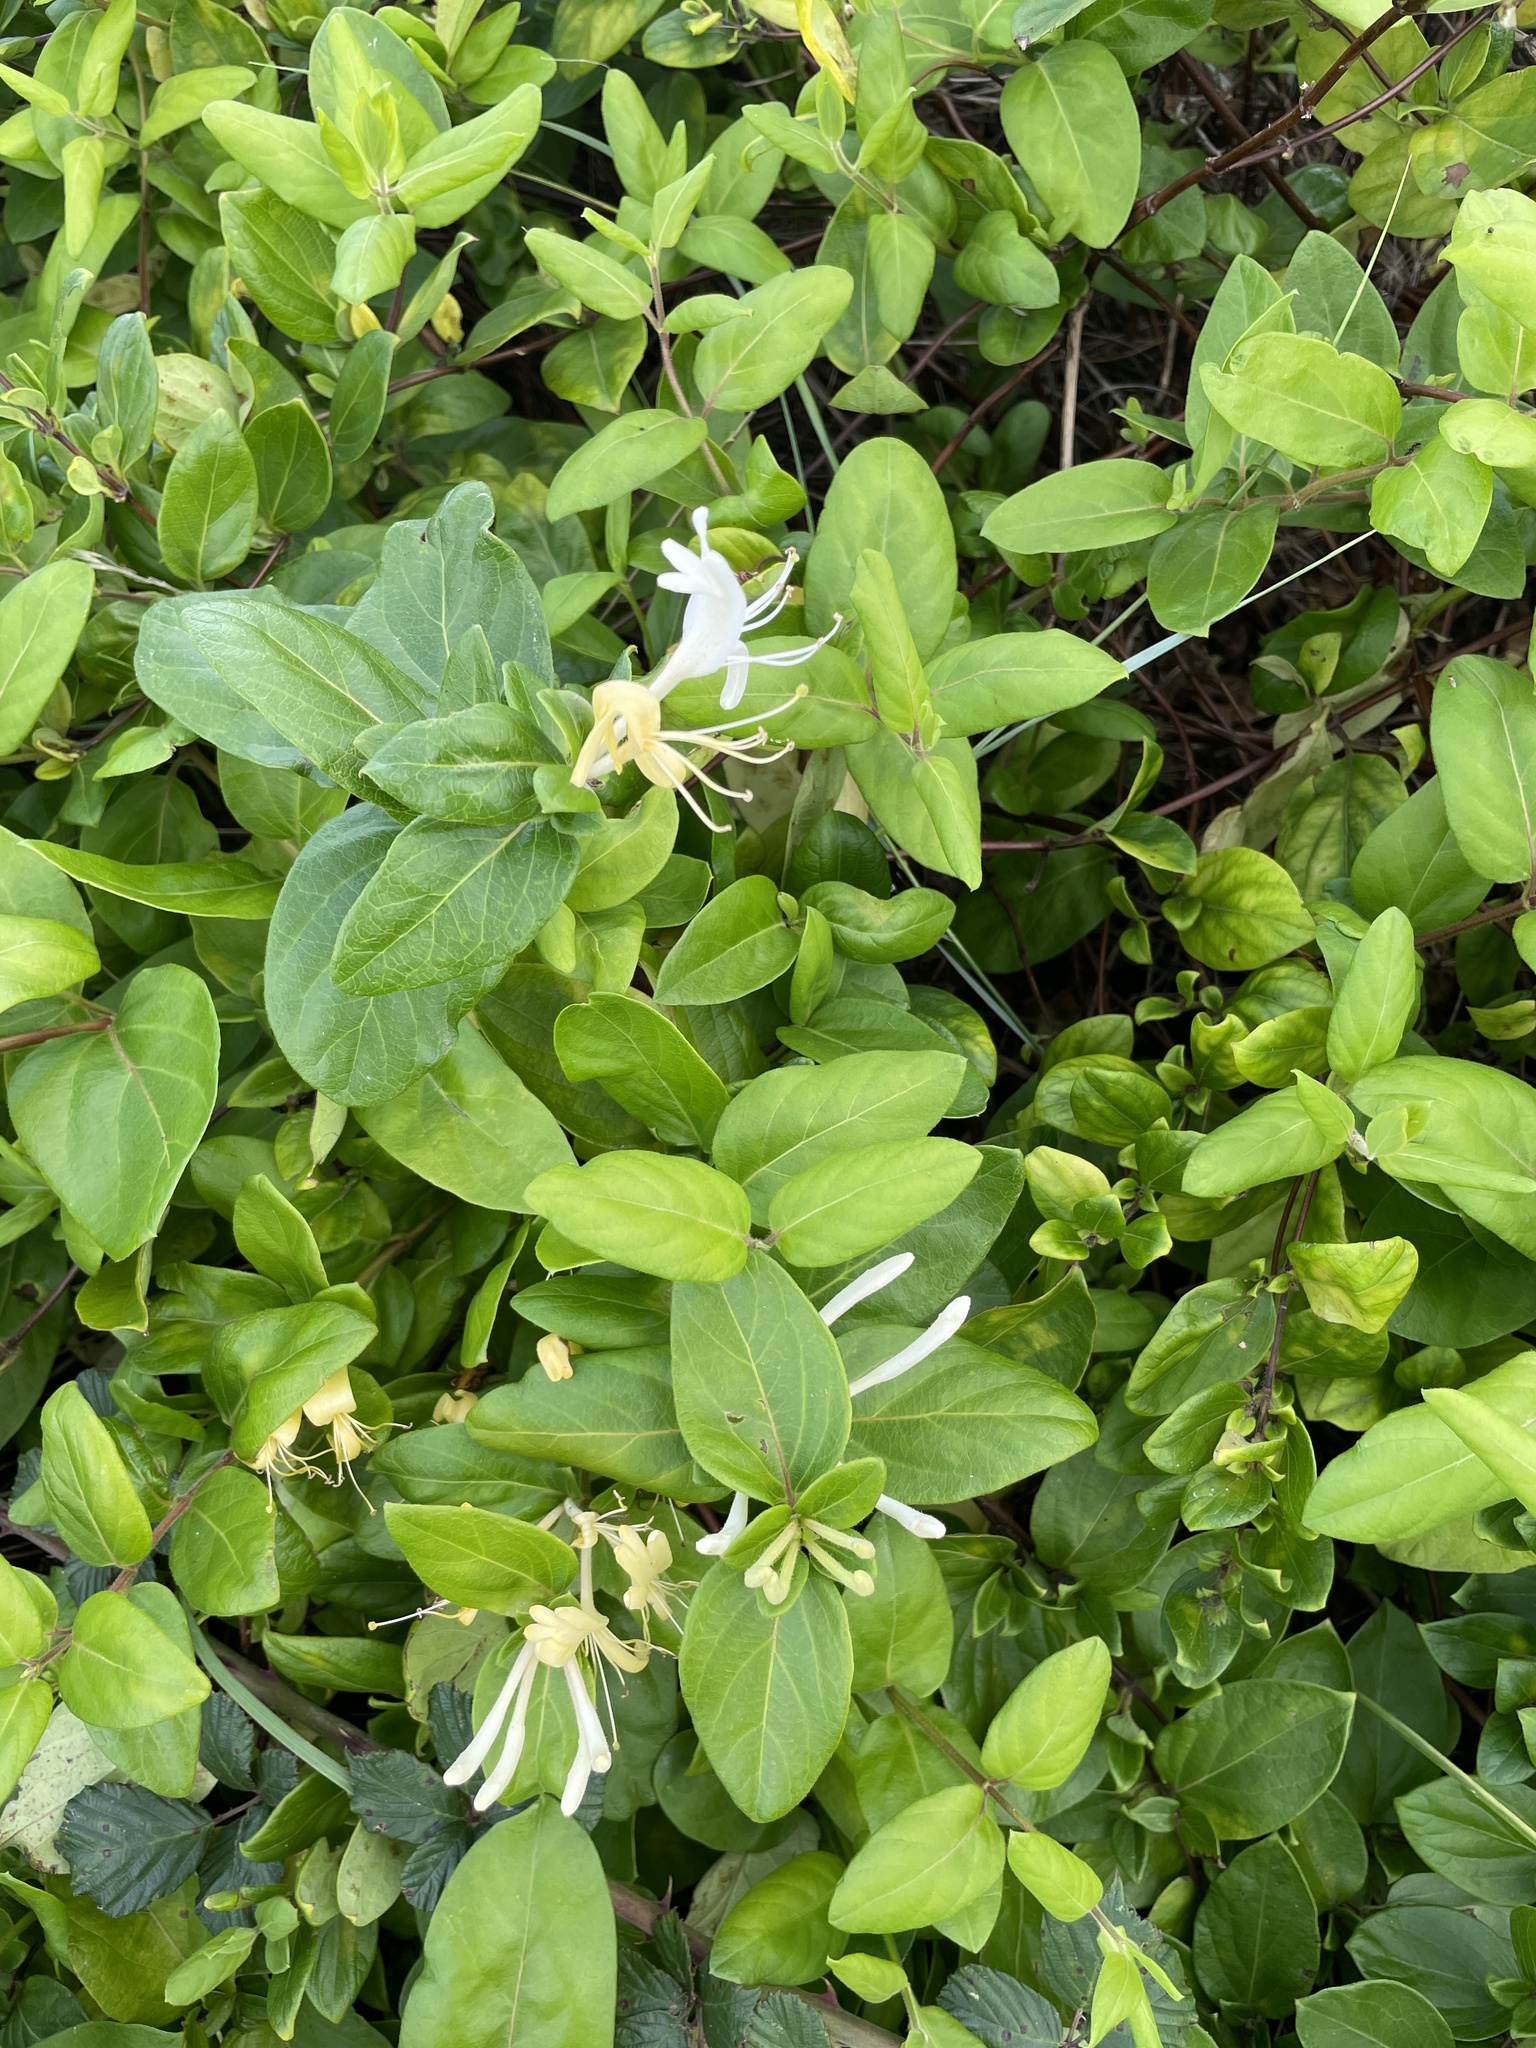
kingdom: Plantae
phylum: Tracheophyta
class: Magnoliopsida
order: Dipsacales
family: Caprifoliaceae
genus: Lonicera
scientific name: Lonicera japonica
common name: Japanese honeysuckle
